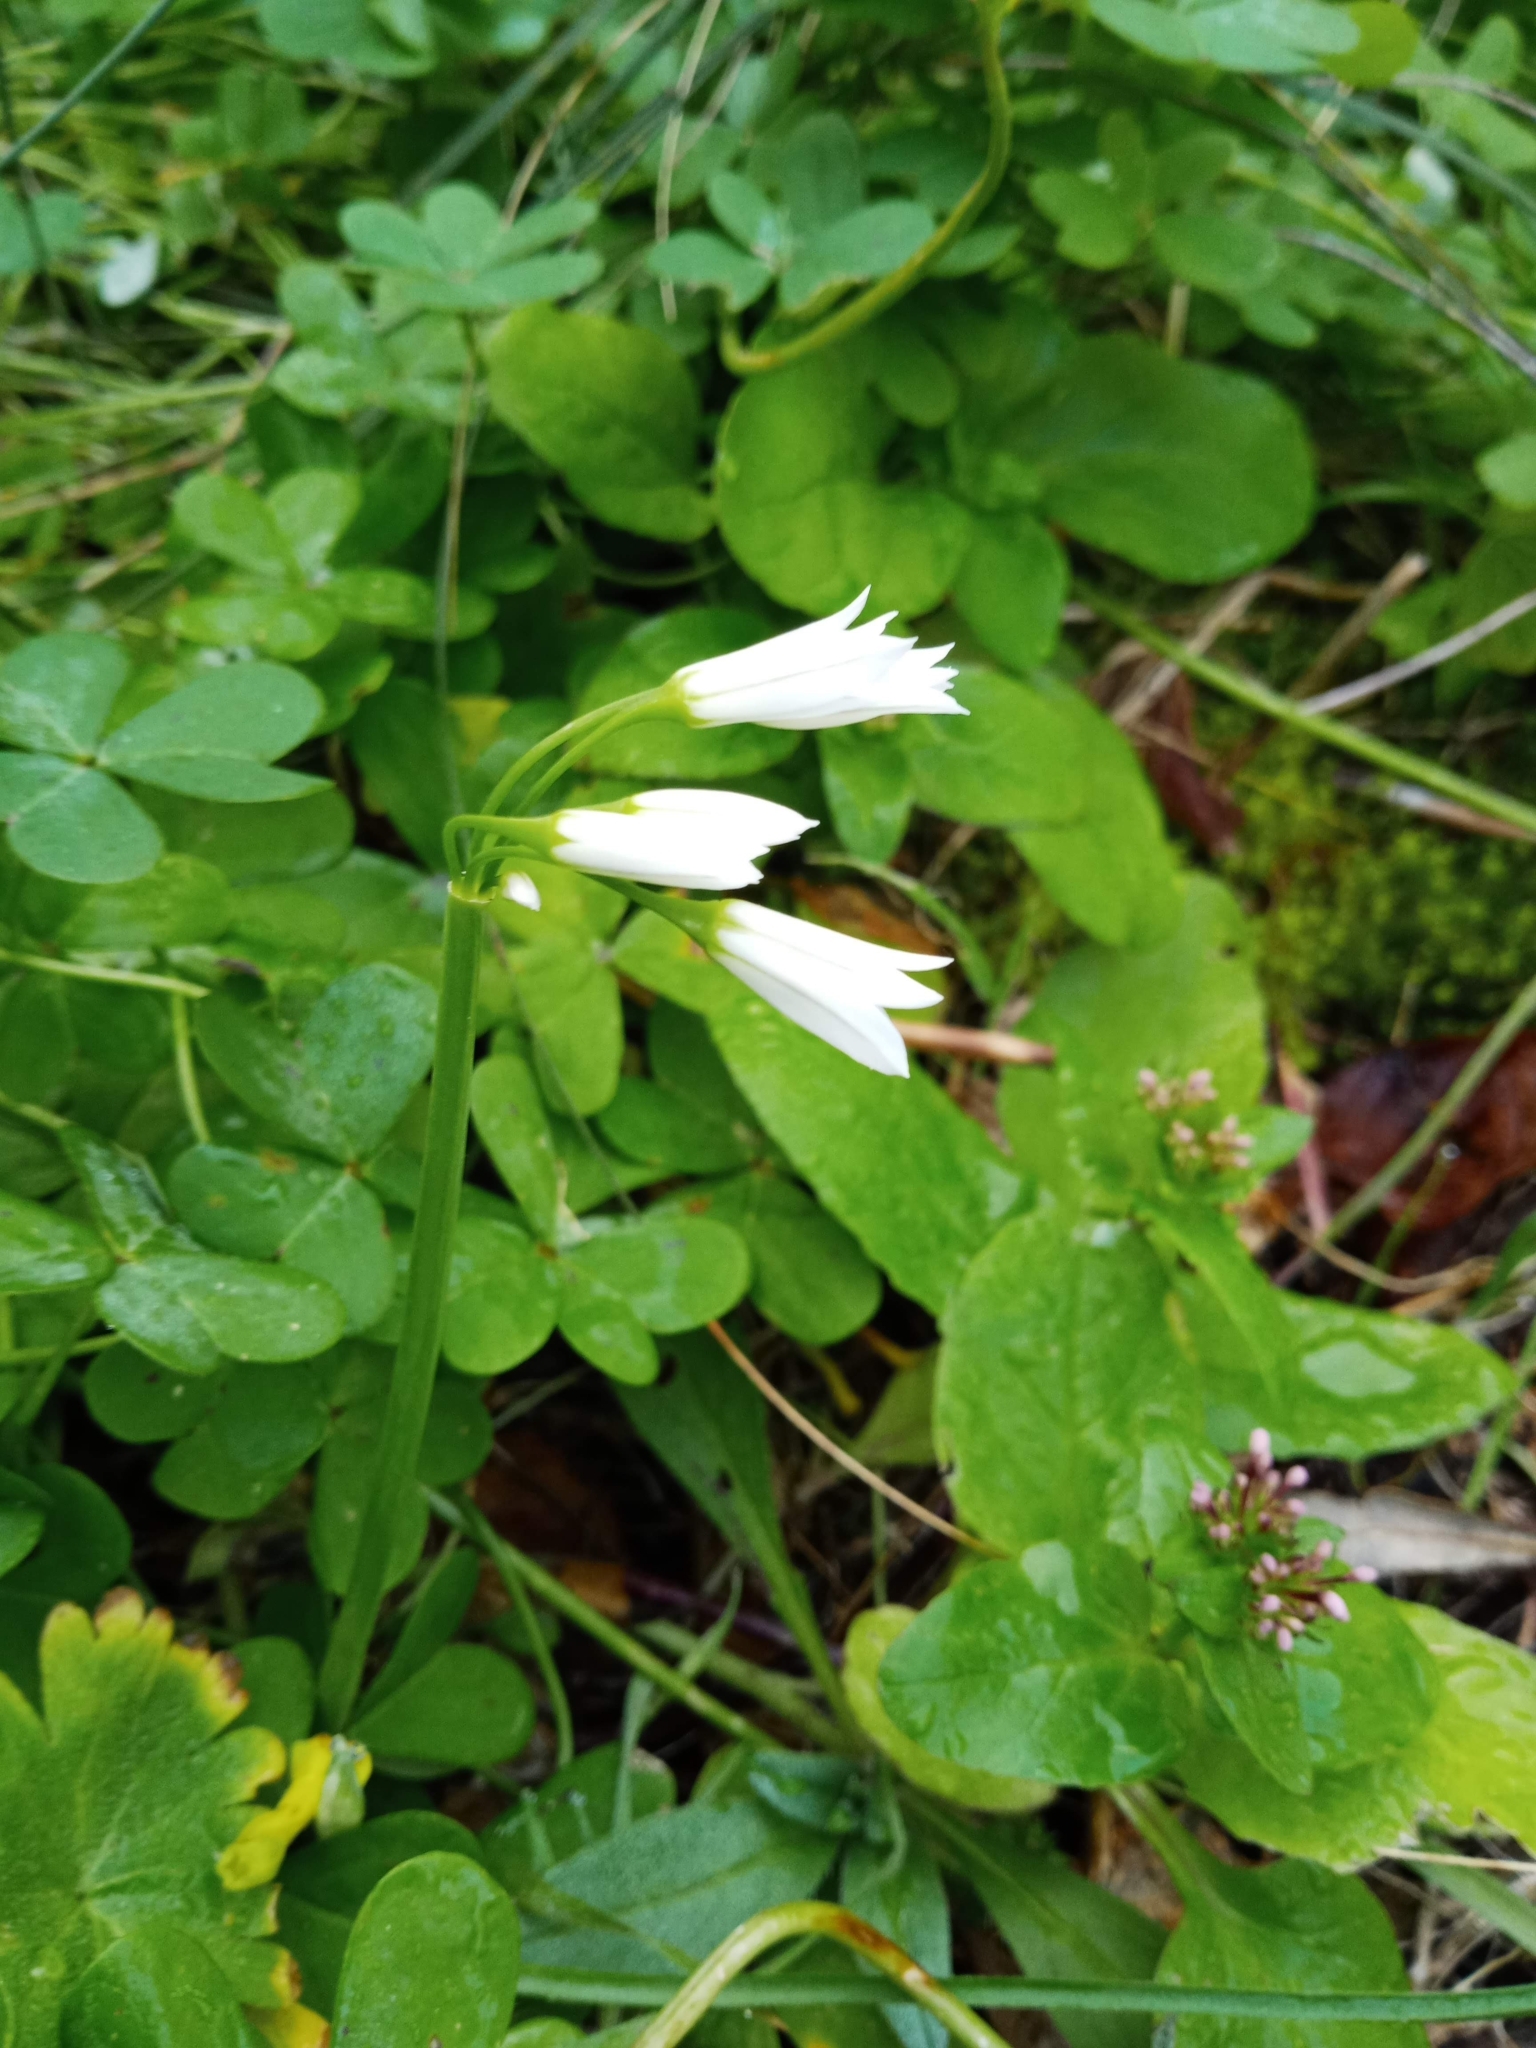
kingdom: Plantae
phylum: Tracheophyta
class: Liliopsida
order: Asparagales
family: Amaryllidaceae
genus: Allium
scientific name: Allium triquetrum
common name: Three-cornered garlic
